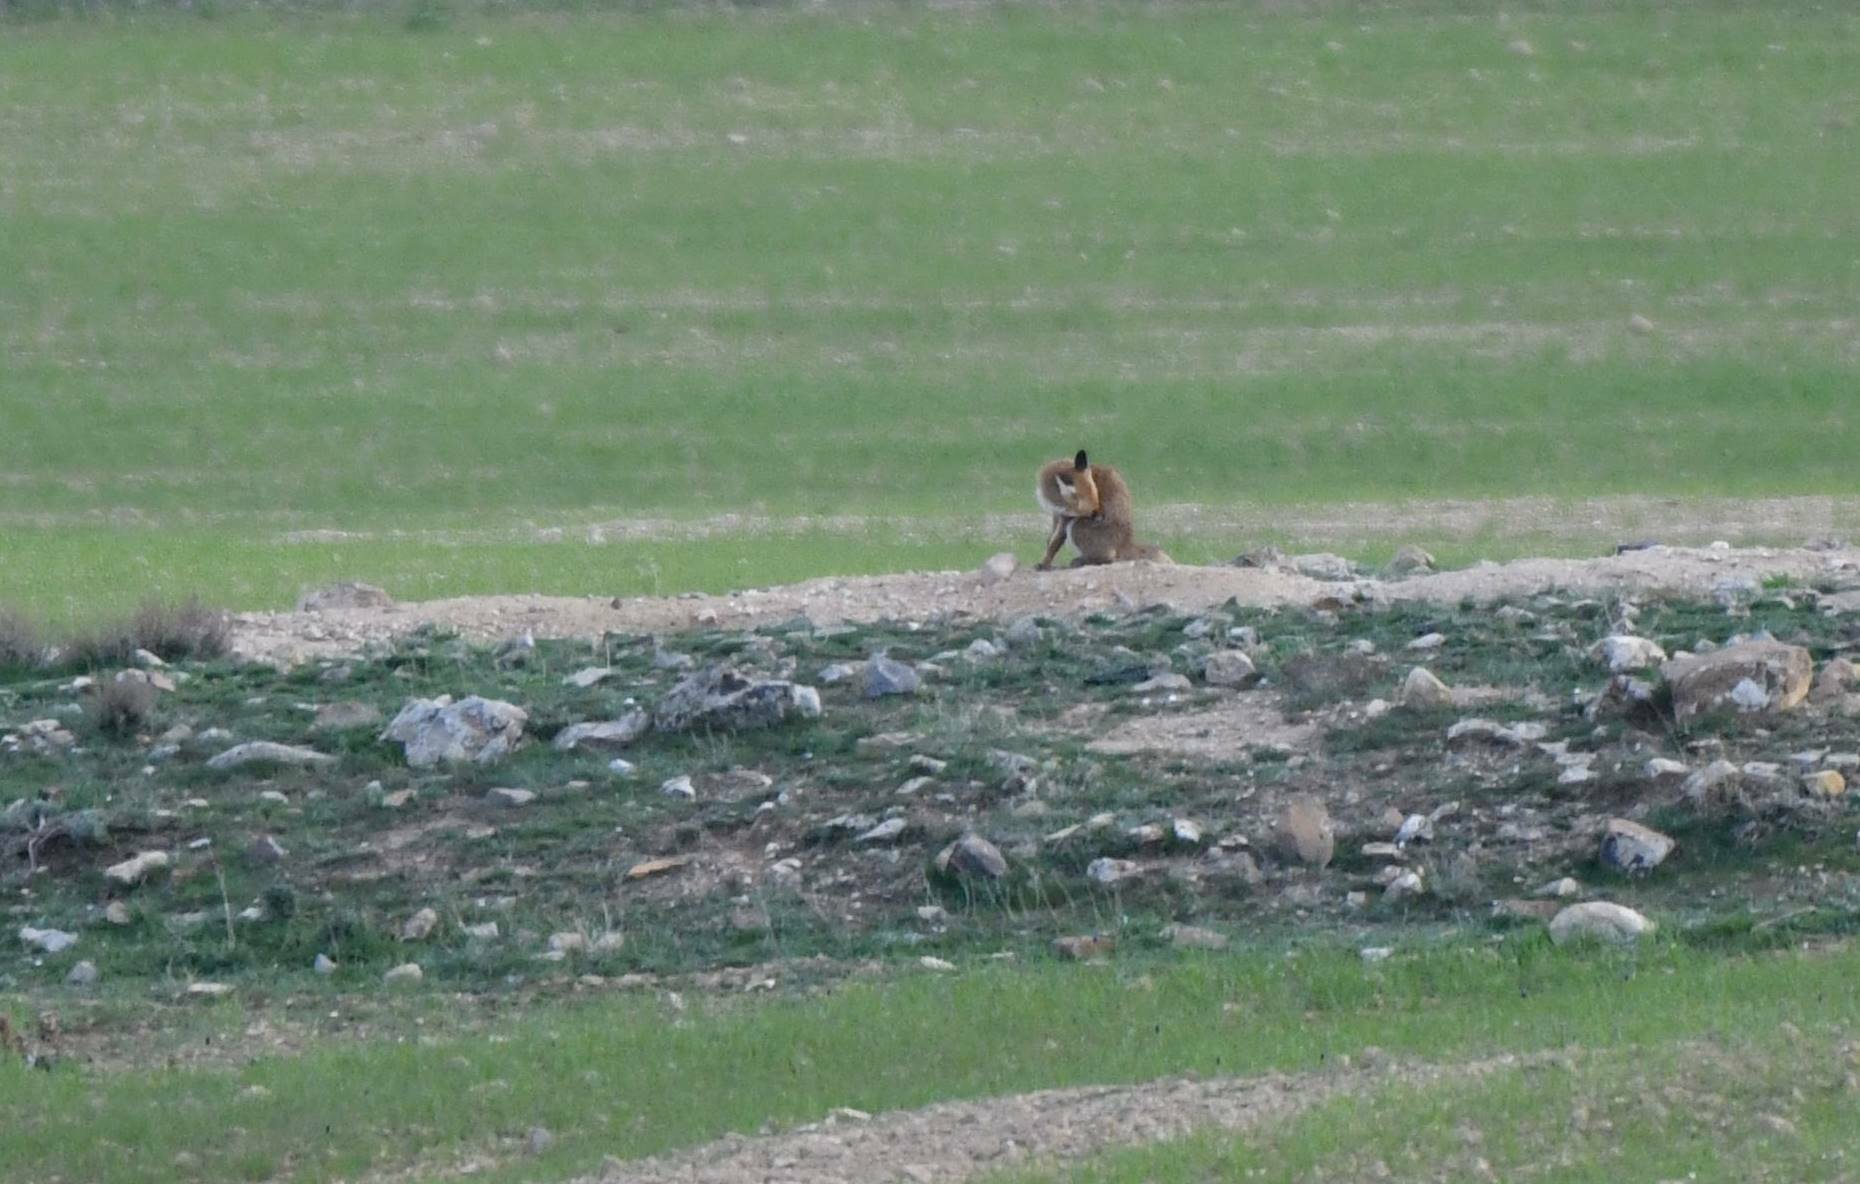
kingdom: Animalia
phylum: Chordata
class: Mammalia
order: Carnivora
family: Canidae
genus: Vulpes
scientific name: Vulpes vulpes
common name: Red fox
